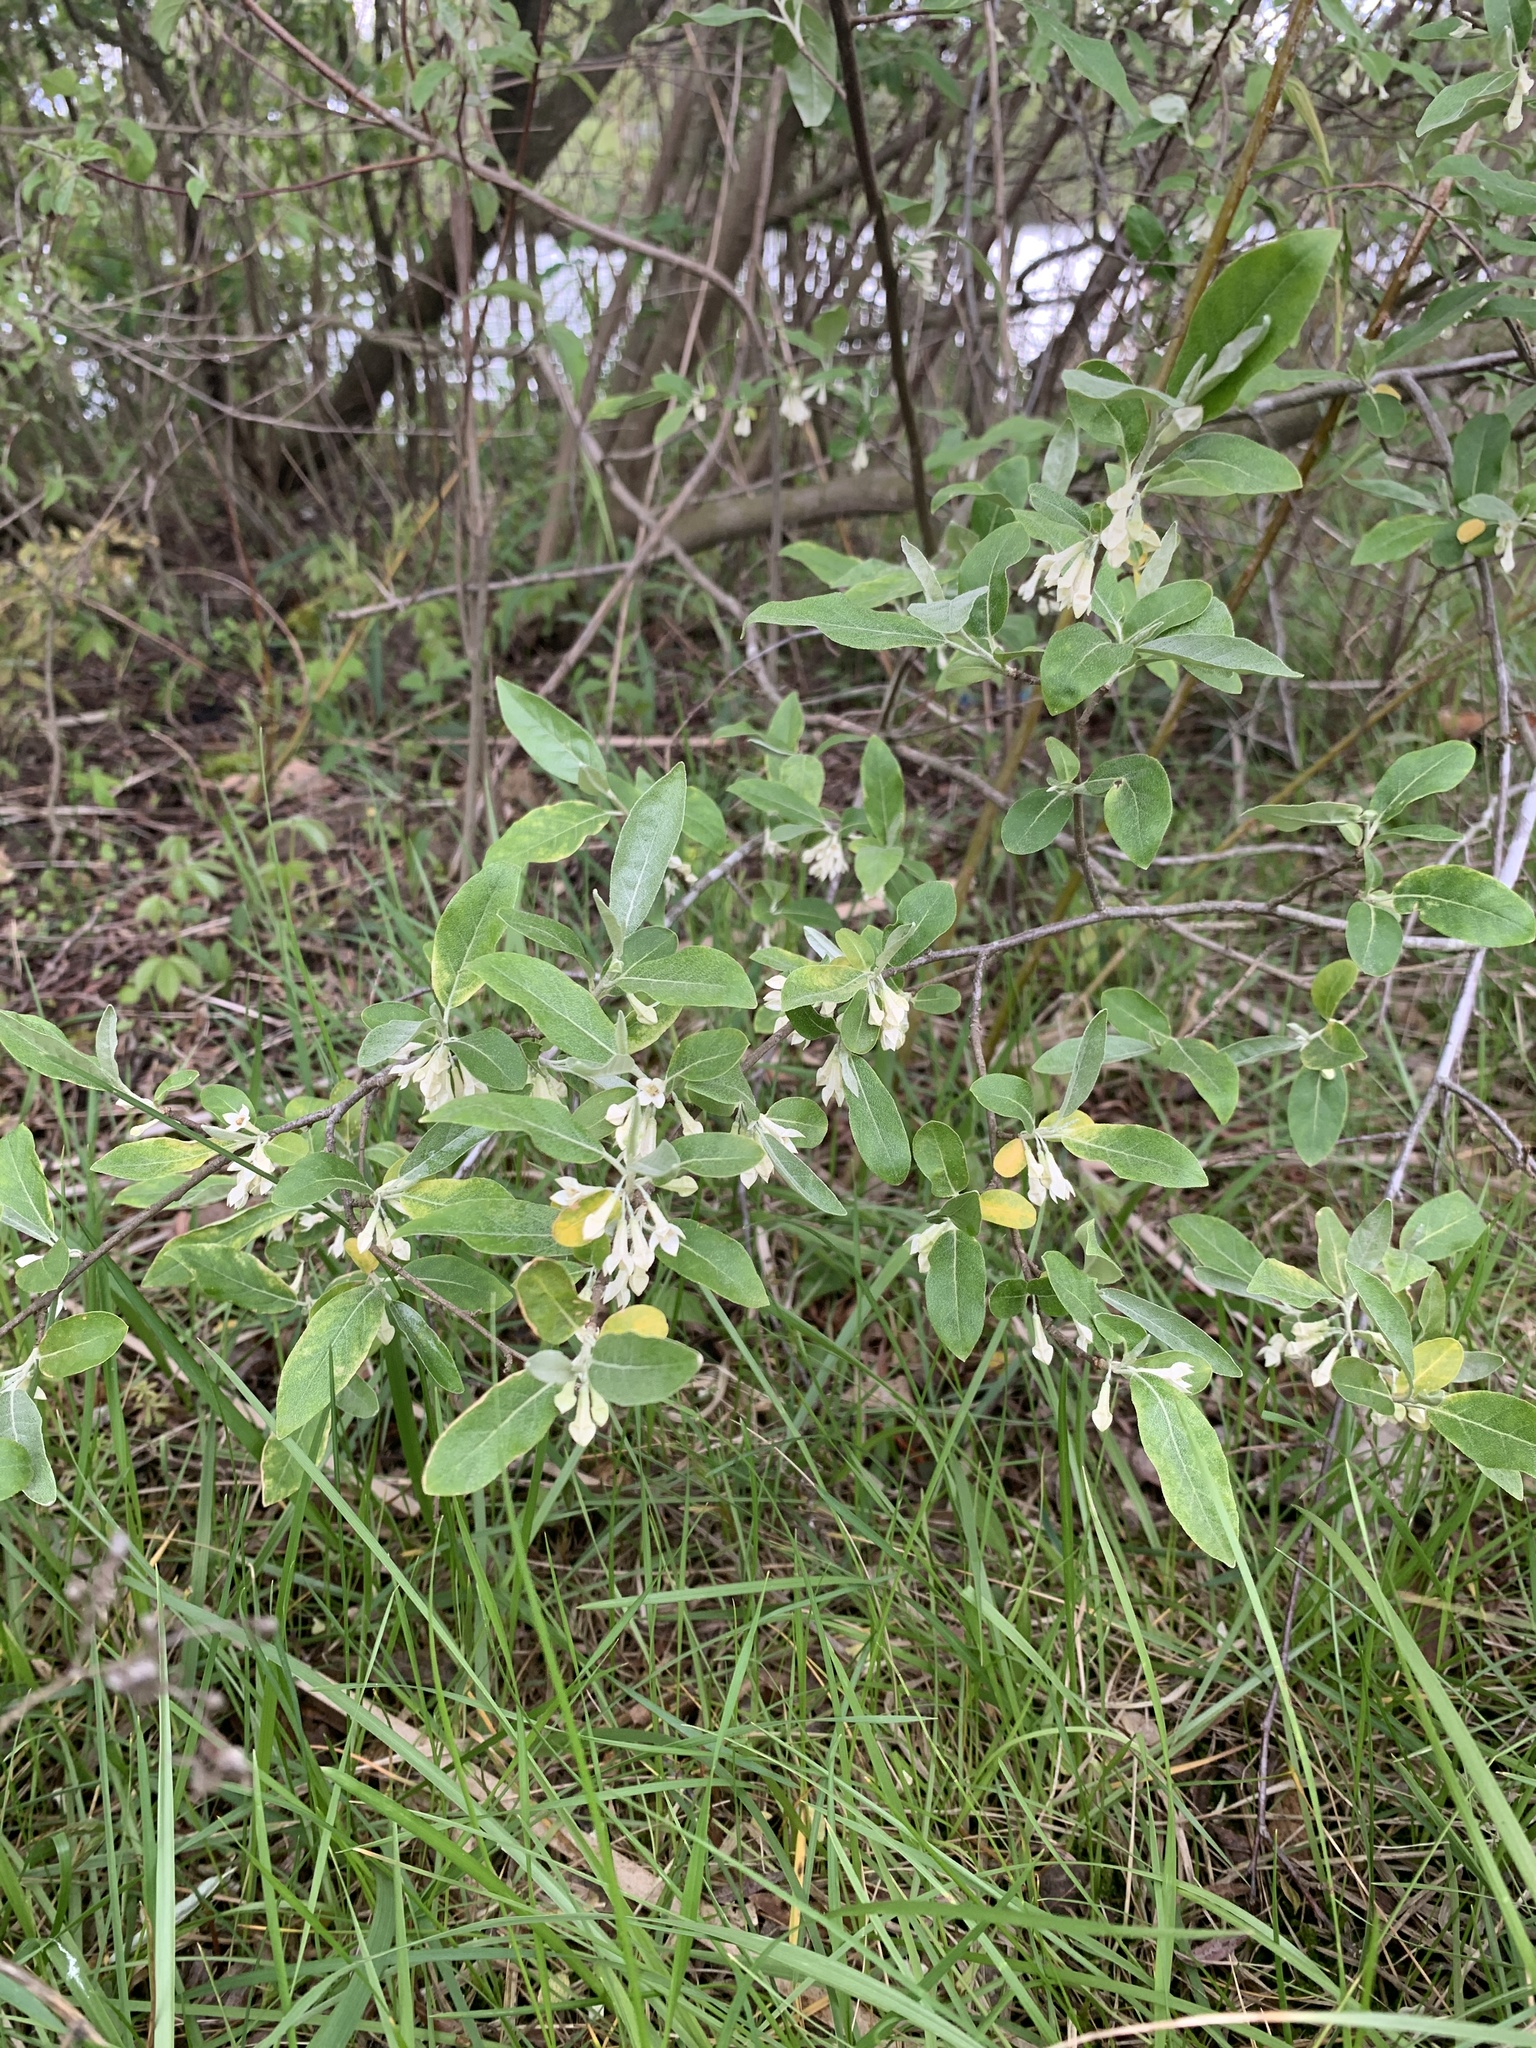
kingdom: Plantae
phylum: Tracheophyta
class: Magnoliopsida
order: Rosales
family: Elaeagnaceae
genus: Elaeagnus
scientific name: Elaeagnus umbellata
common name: Autumn olive
